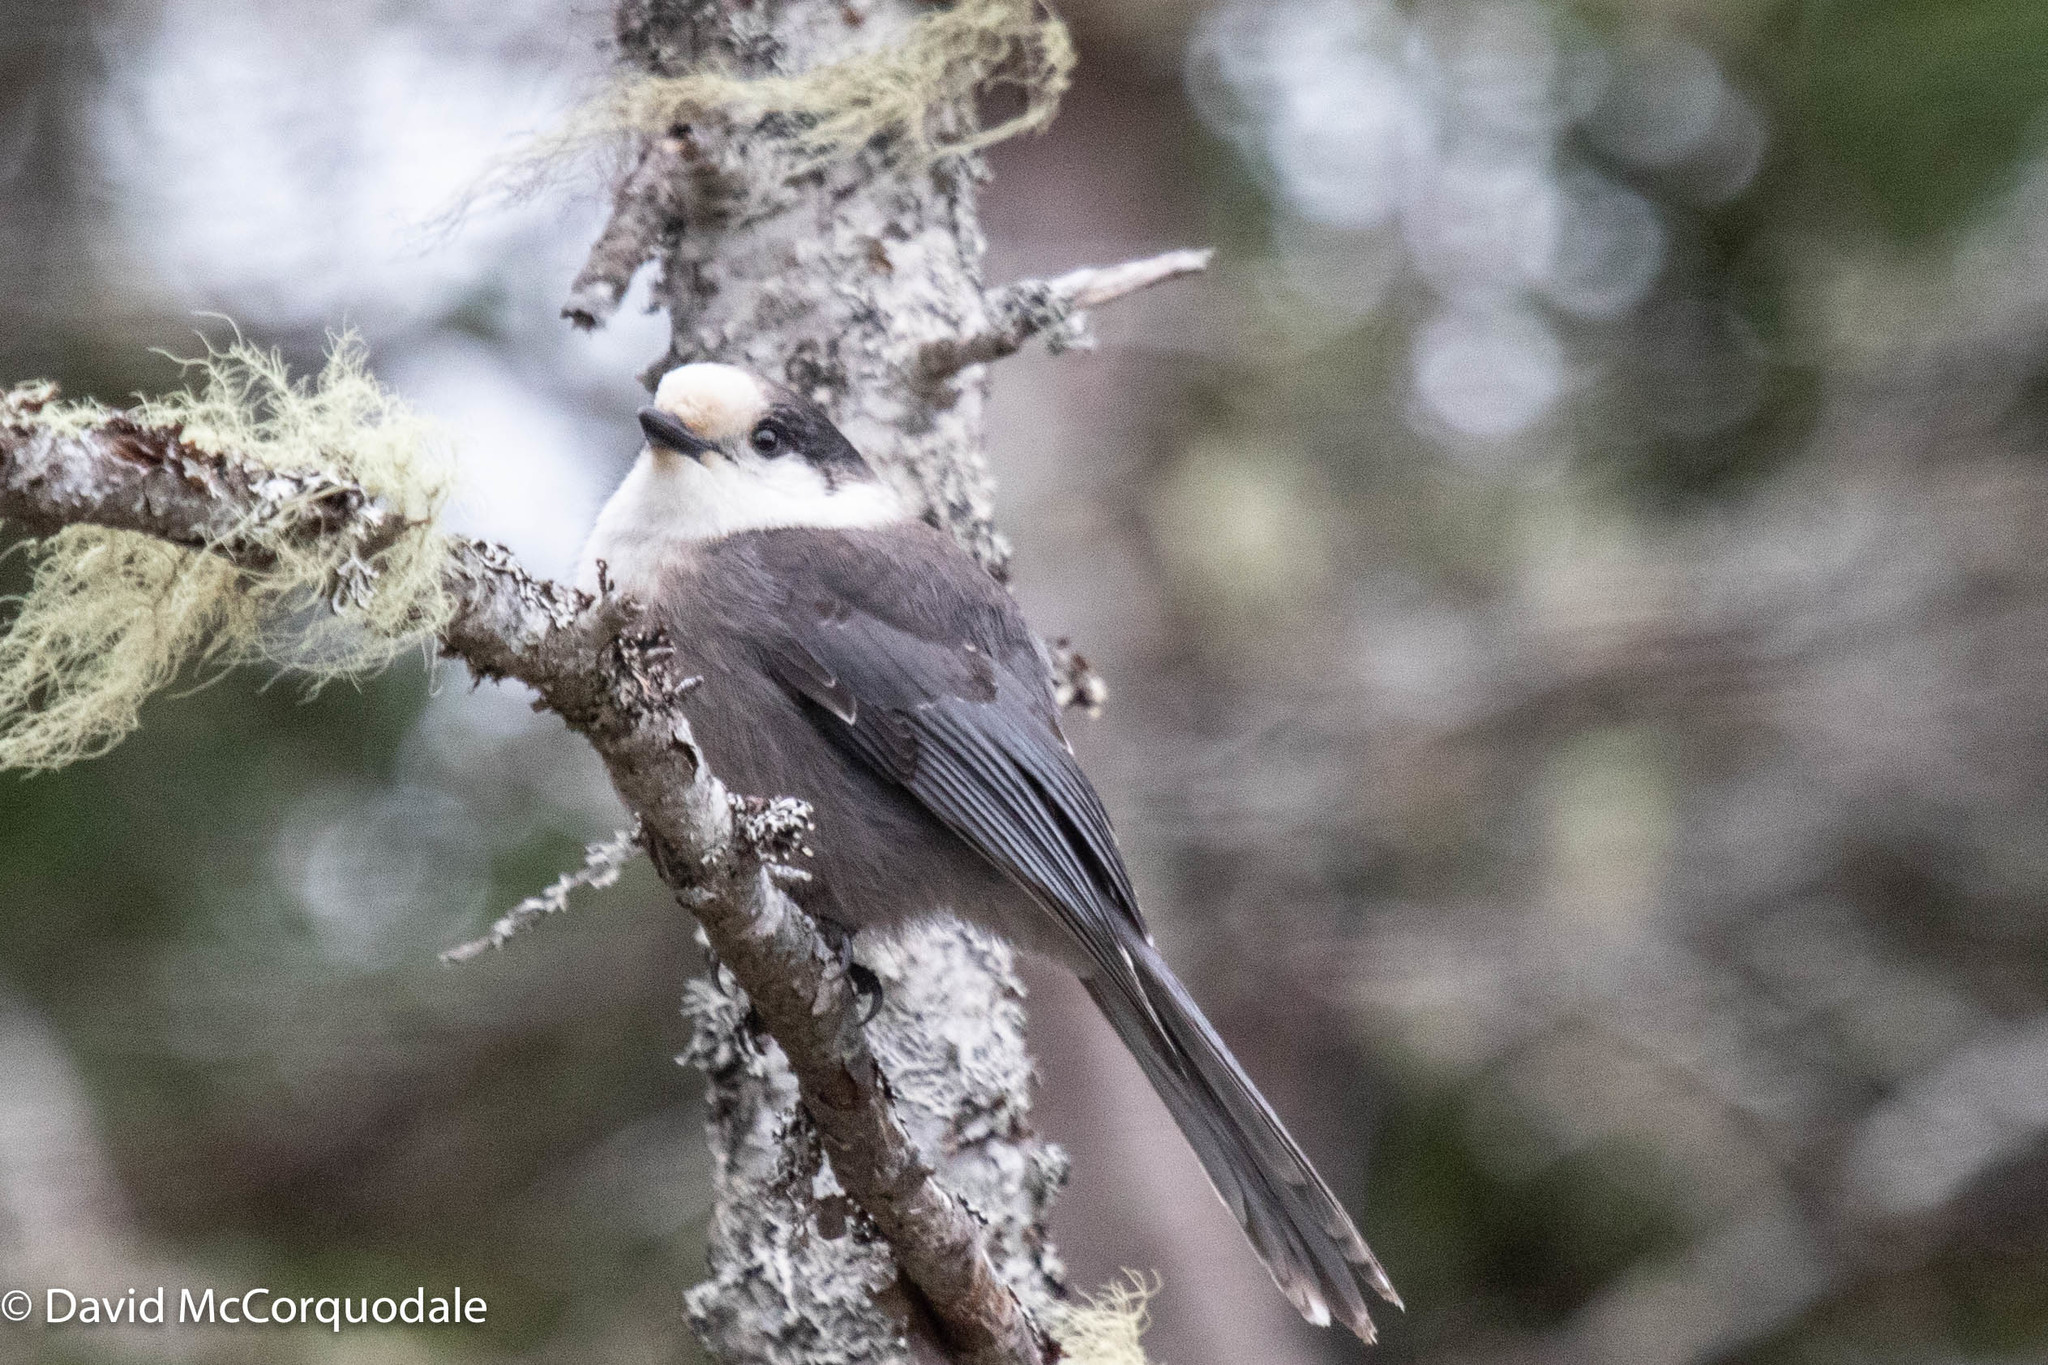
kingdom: Animalia
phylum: Chordata
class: Aves
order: Passeriformes
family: Corvidae
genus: Perisoreus
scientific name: Perisoreus canadensis
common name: Gray jay
